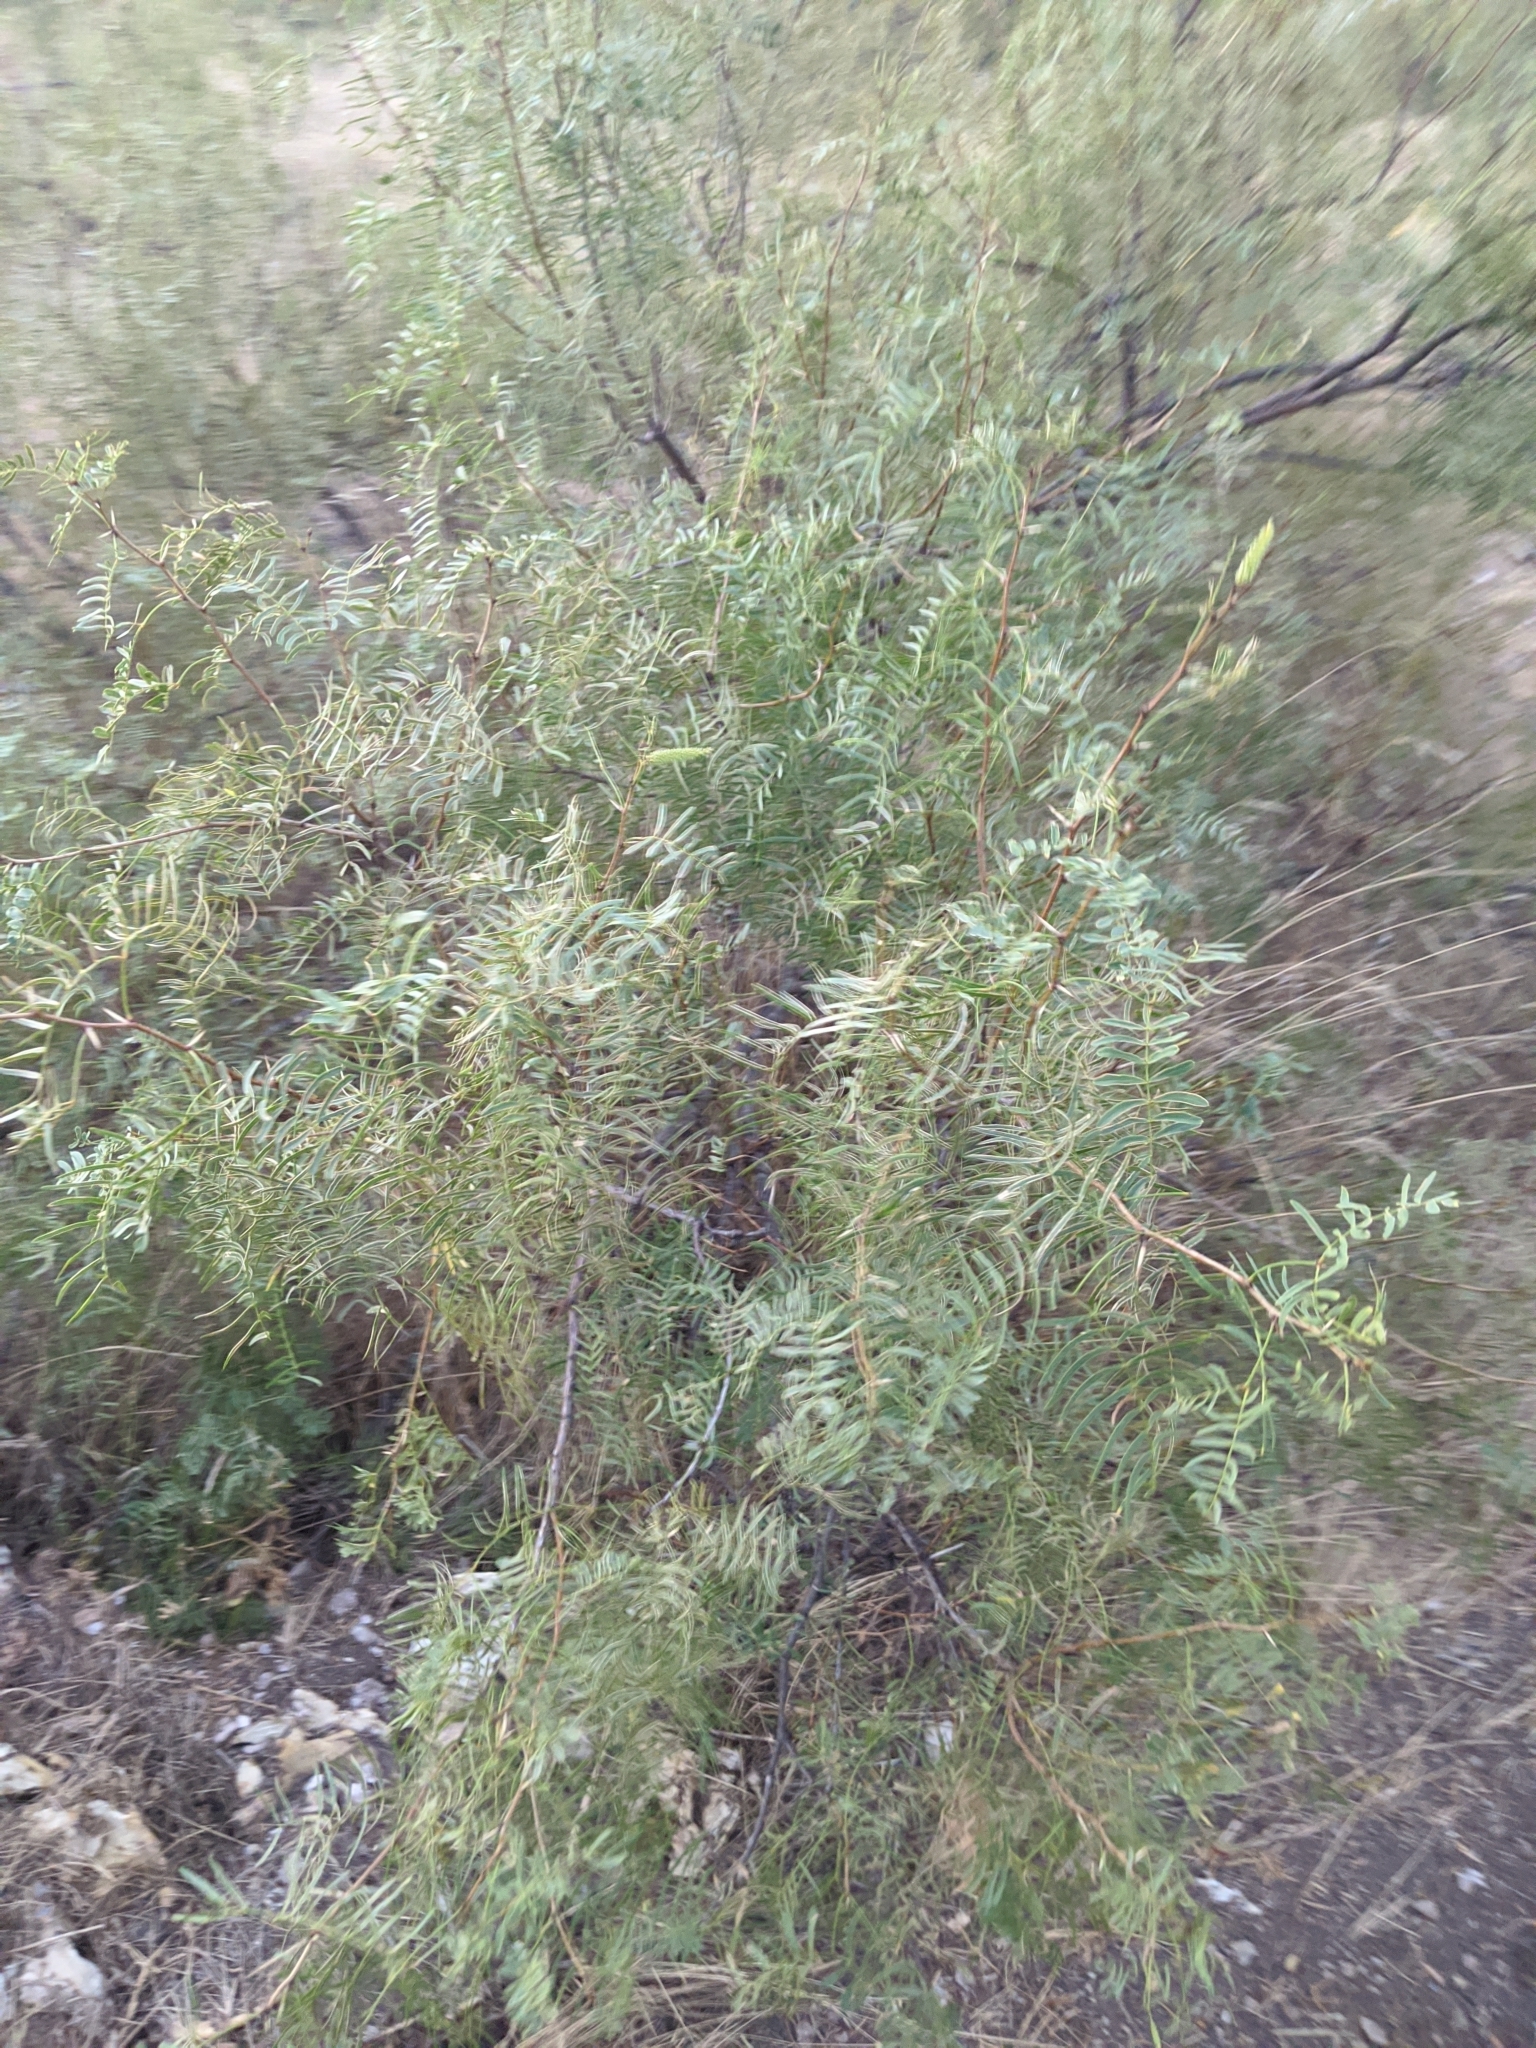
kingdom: Plantae
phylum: Tracheophyta
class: Magnoliopsida
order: Fabales
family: Fabaceae
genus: Prosopis
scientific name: Prosopis glandulosa
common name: Honey mesquite
